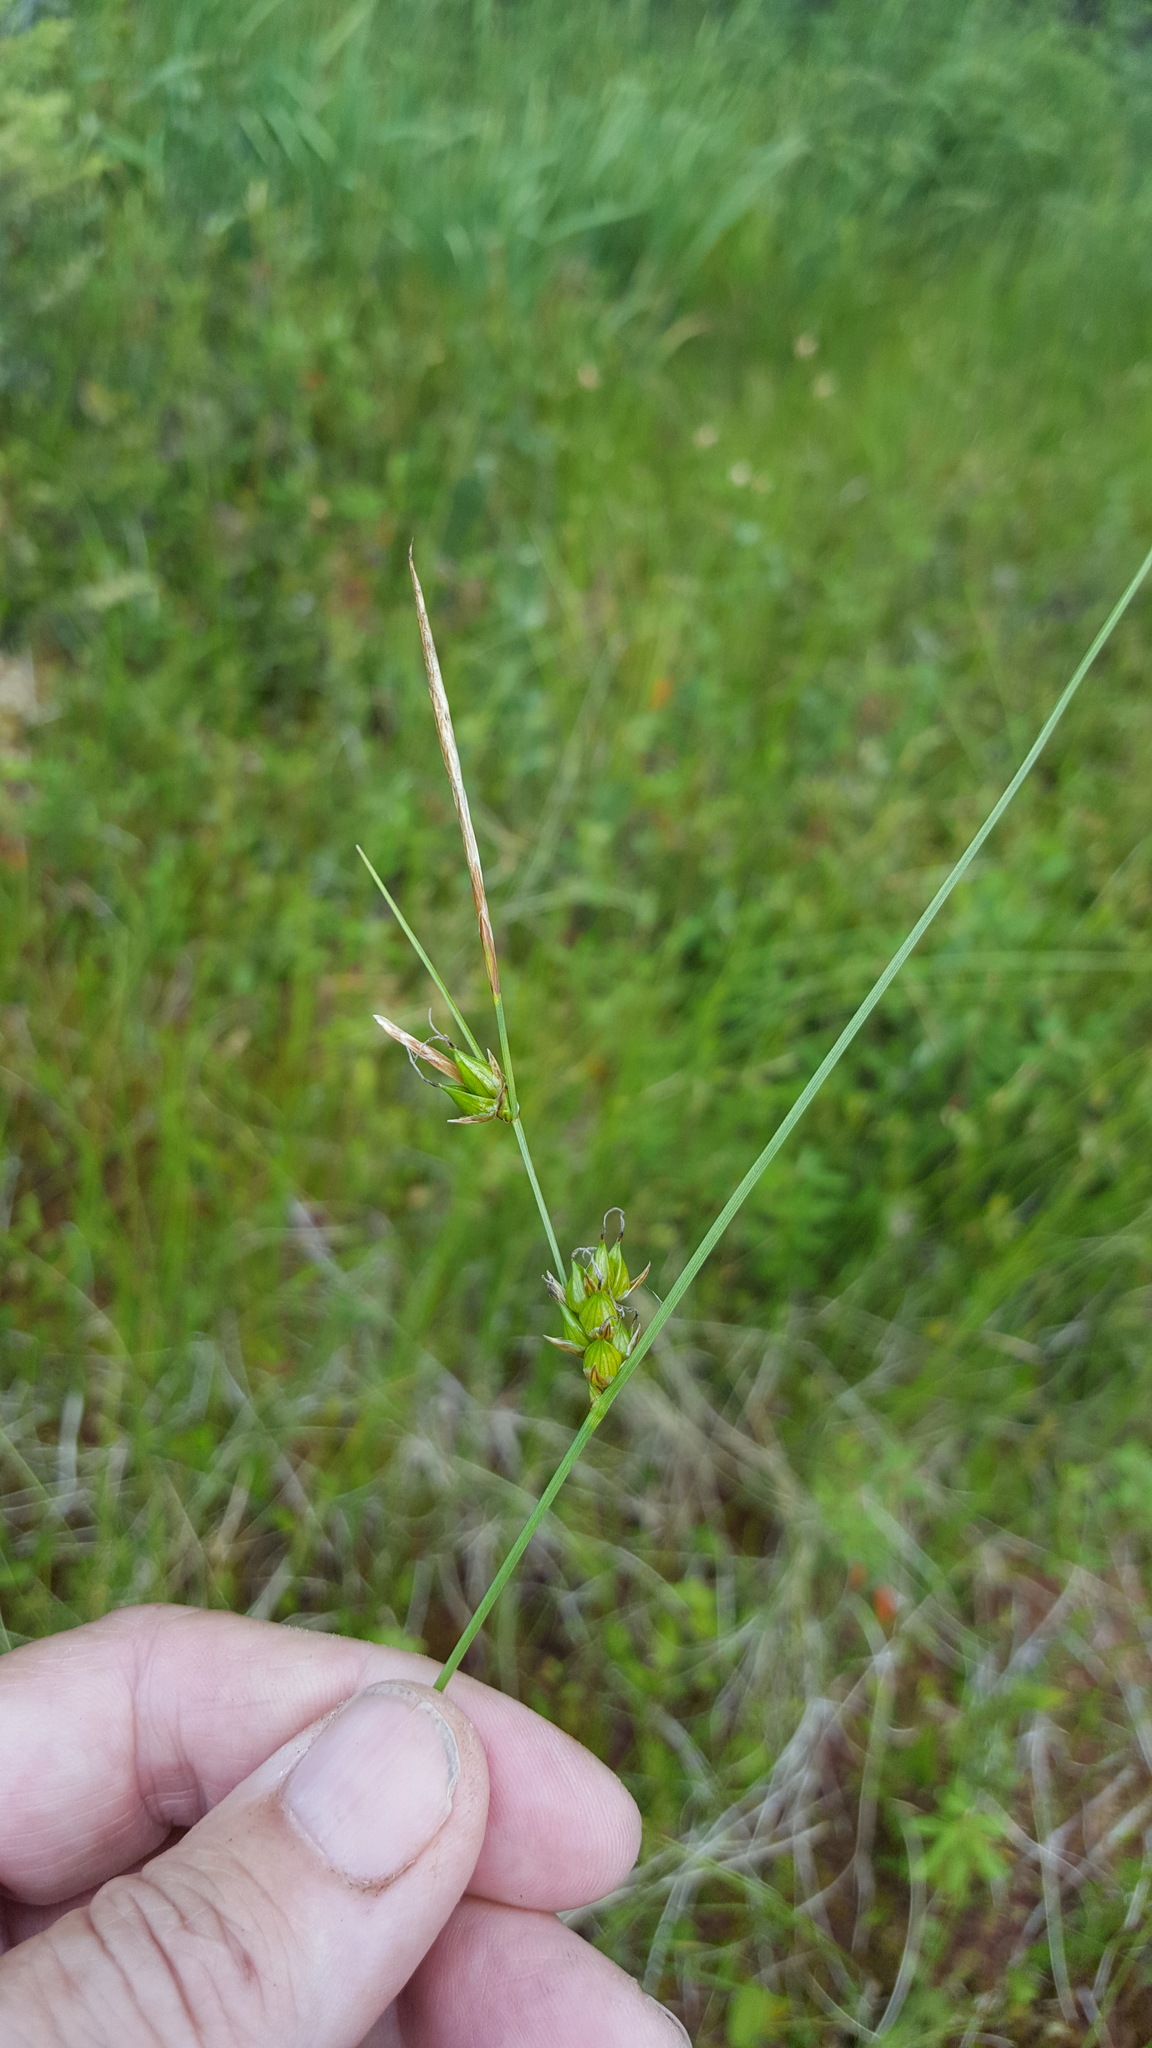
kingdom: Plantae
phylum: Tracheophyta
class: Liliopsida
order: Poales
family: Cyperaceae
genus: Carex
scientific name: Carex oligosperma
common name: Few-seed sedge
